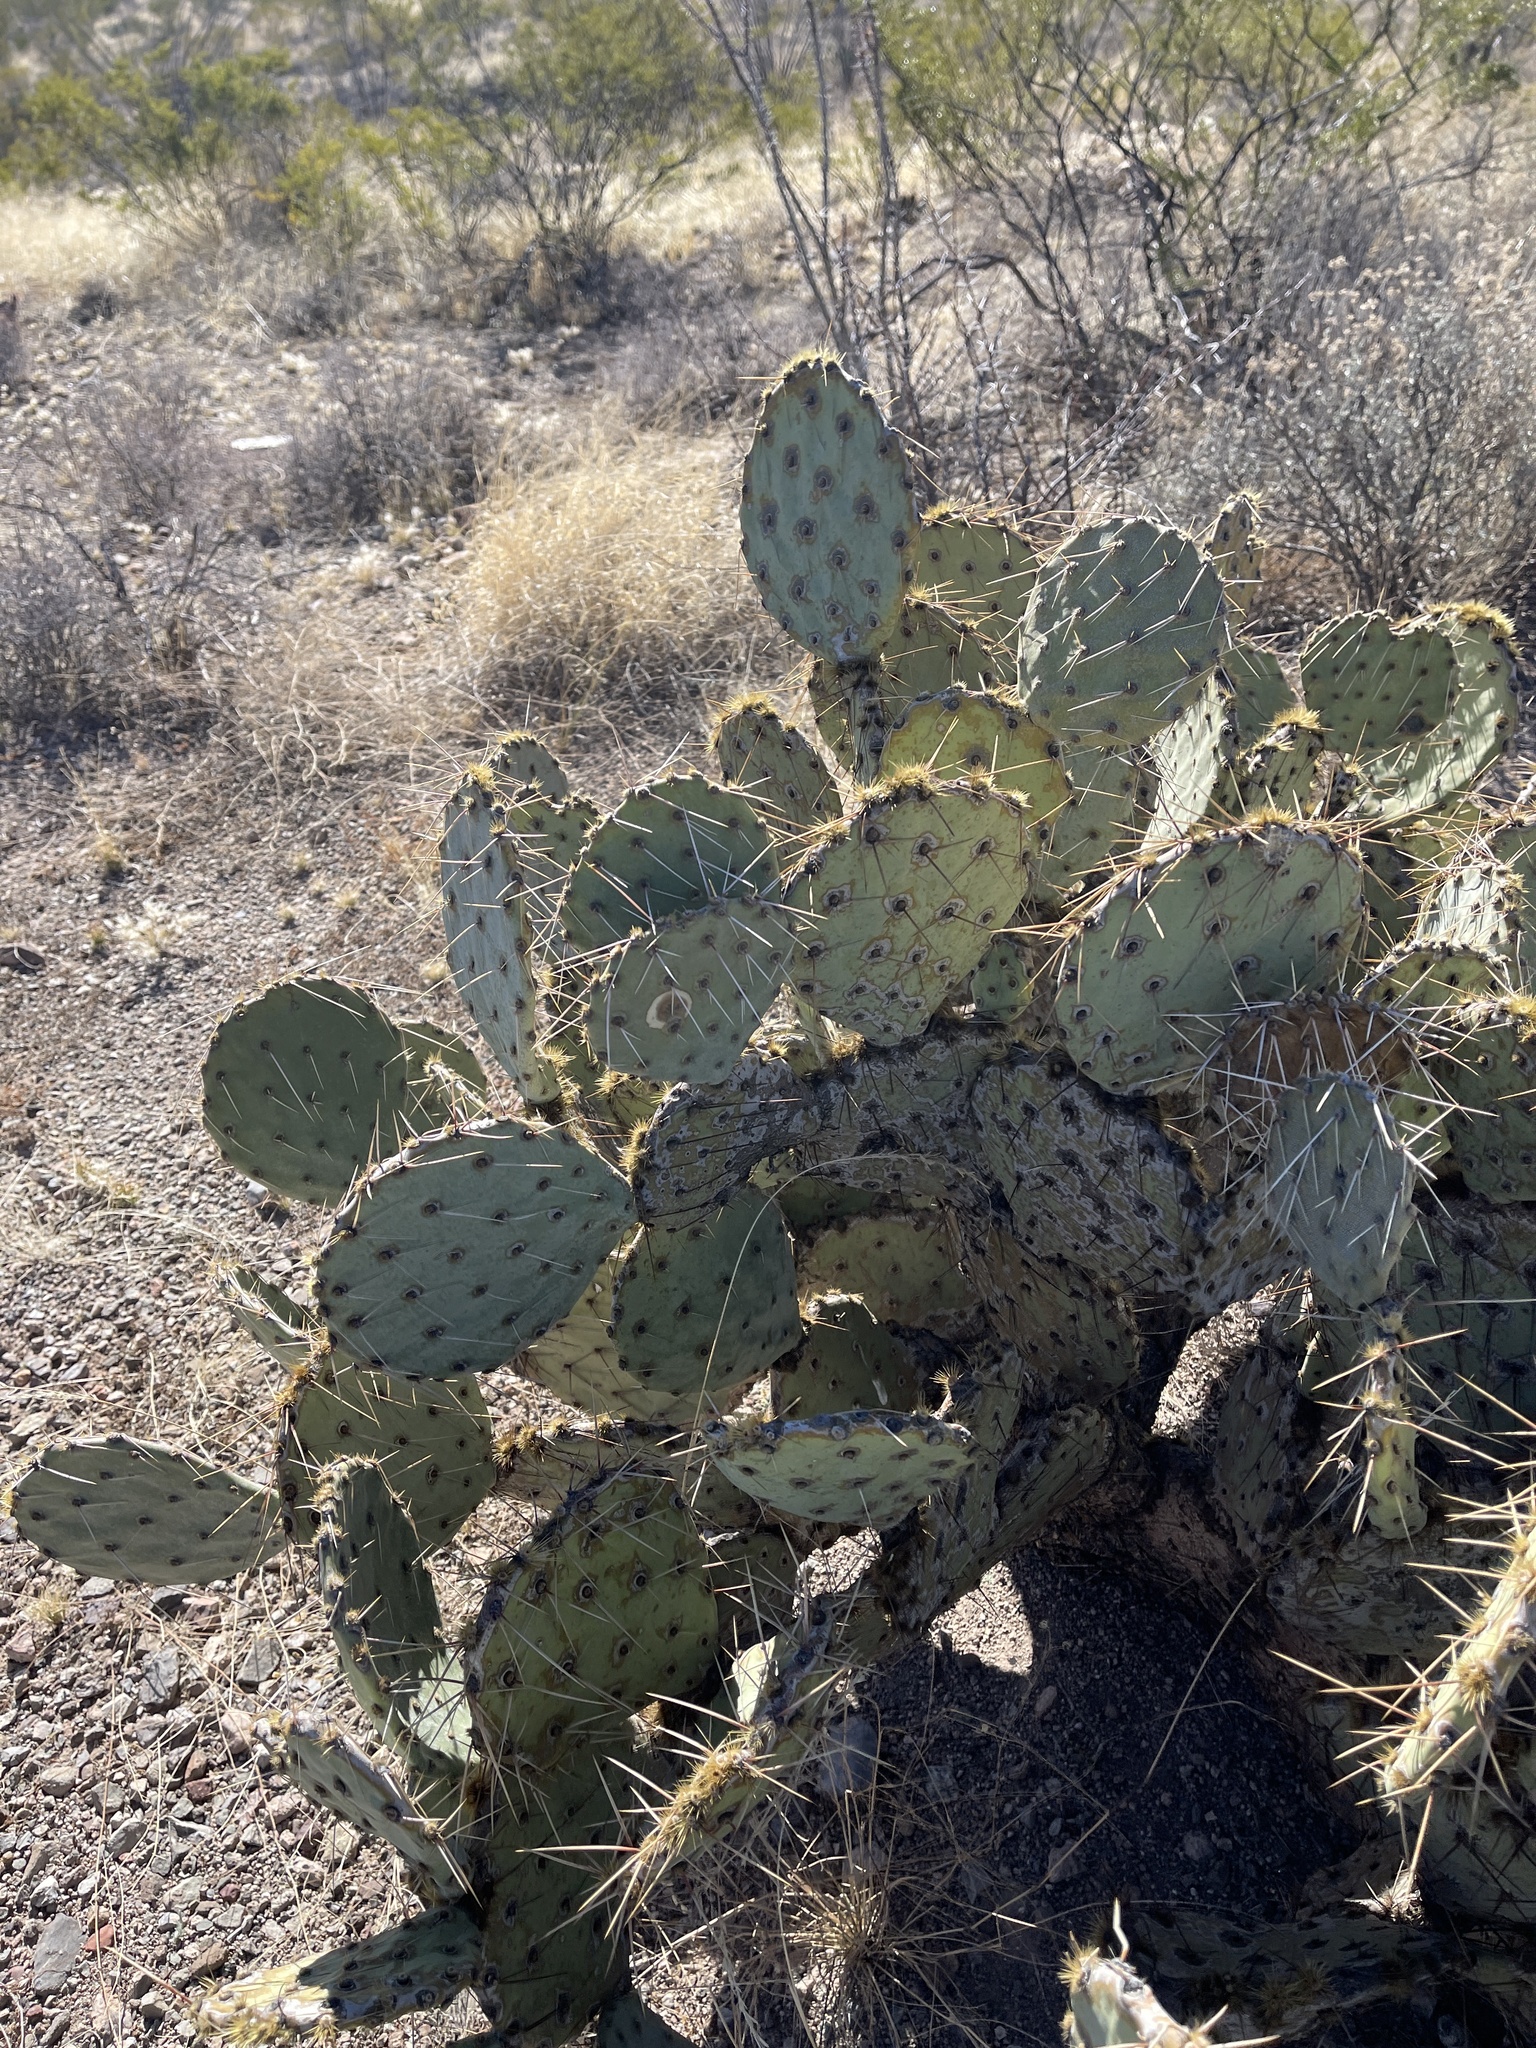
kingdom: Plantae
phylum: Tracheophyta
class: Magnoliopsida
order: Caryophyllales
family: Cactaceae
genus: Opuntia
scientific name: Opuntia engelmannii
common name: Cactus-apple
